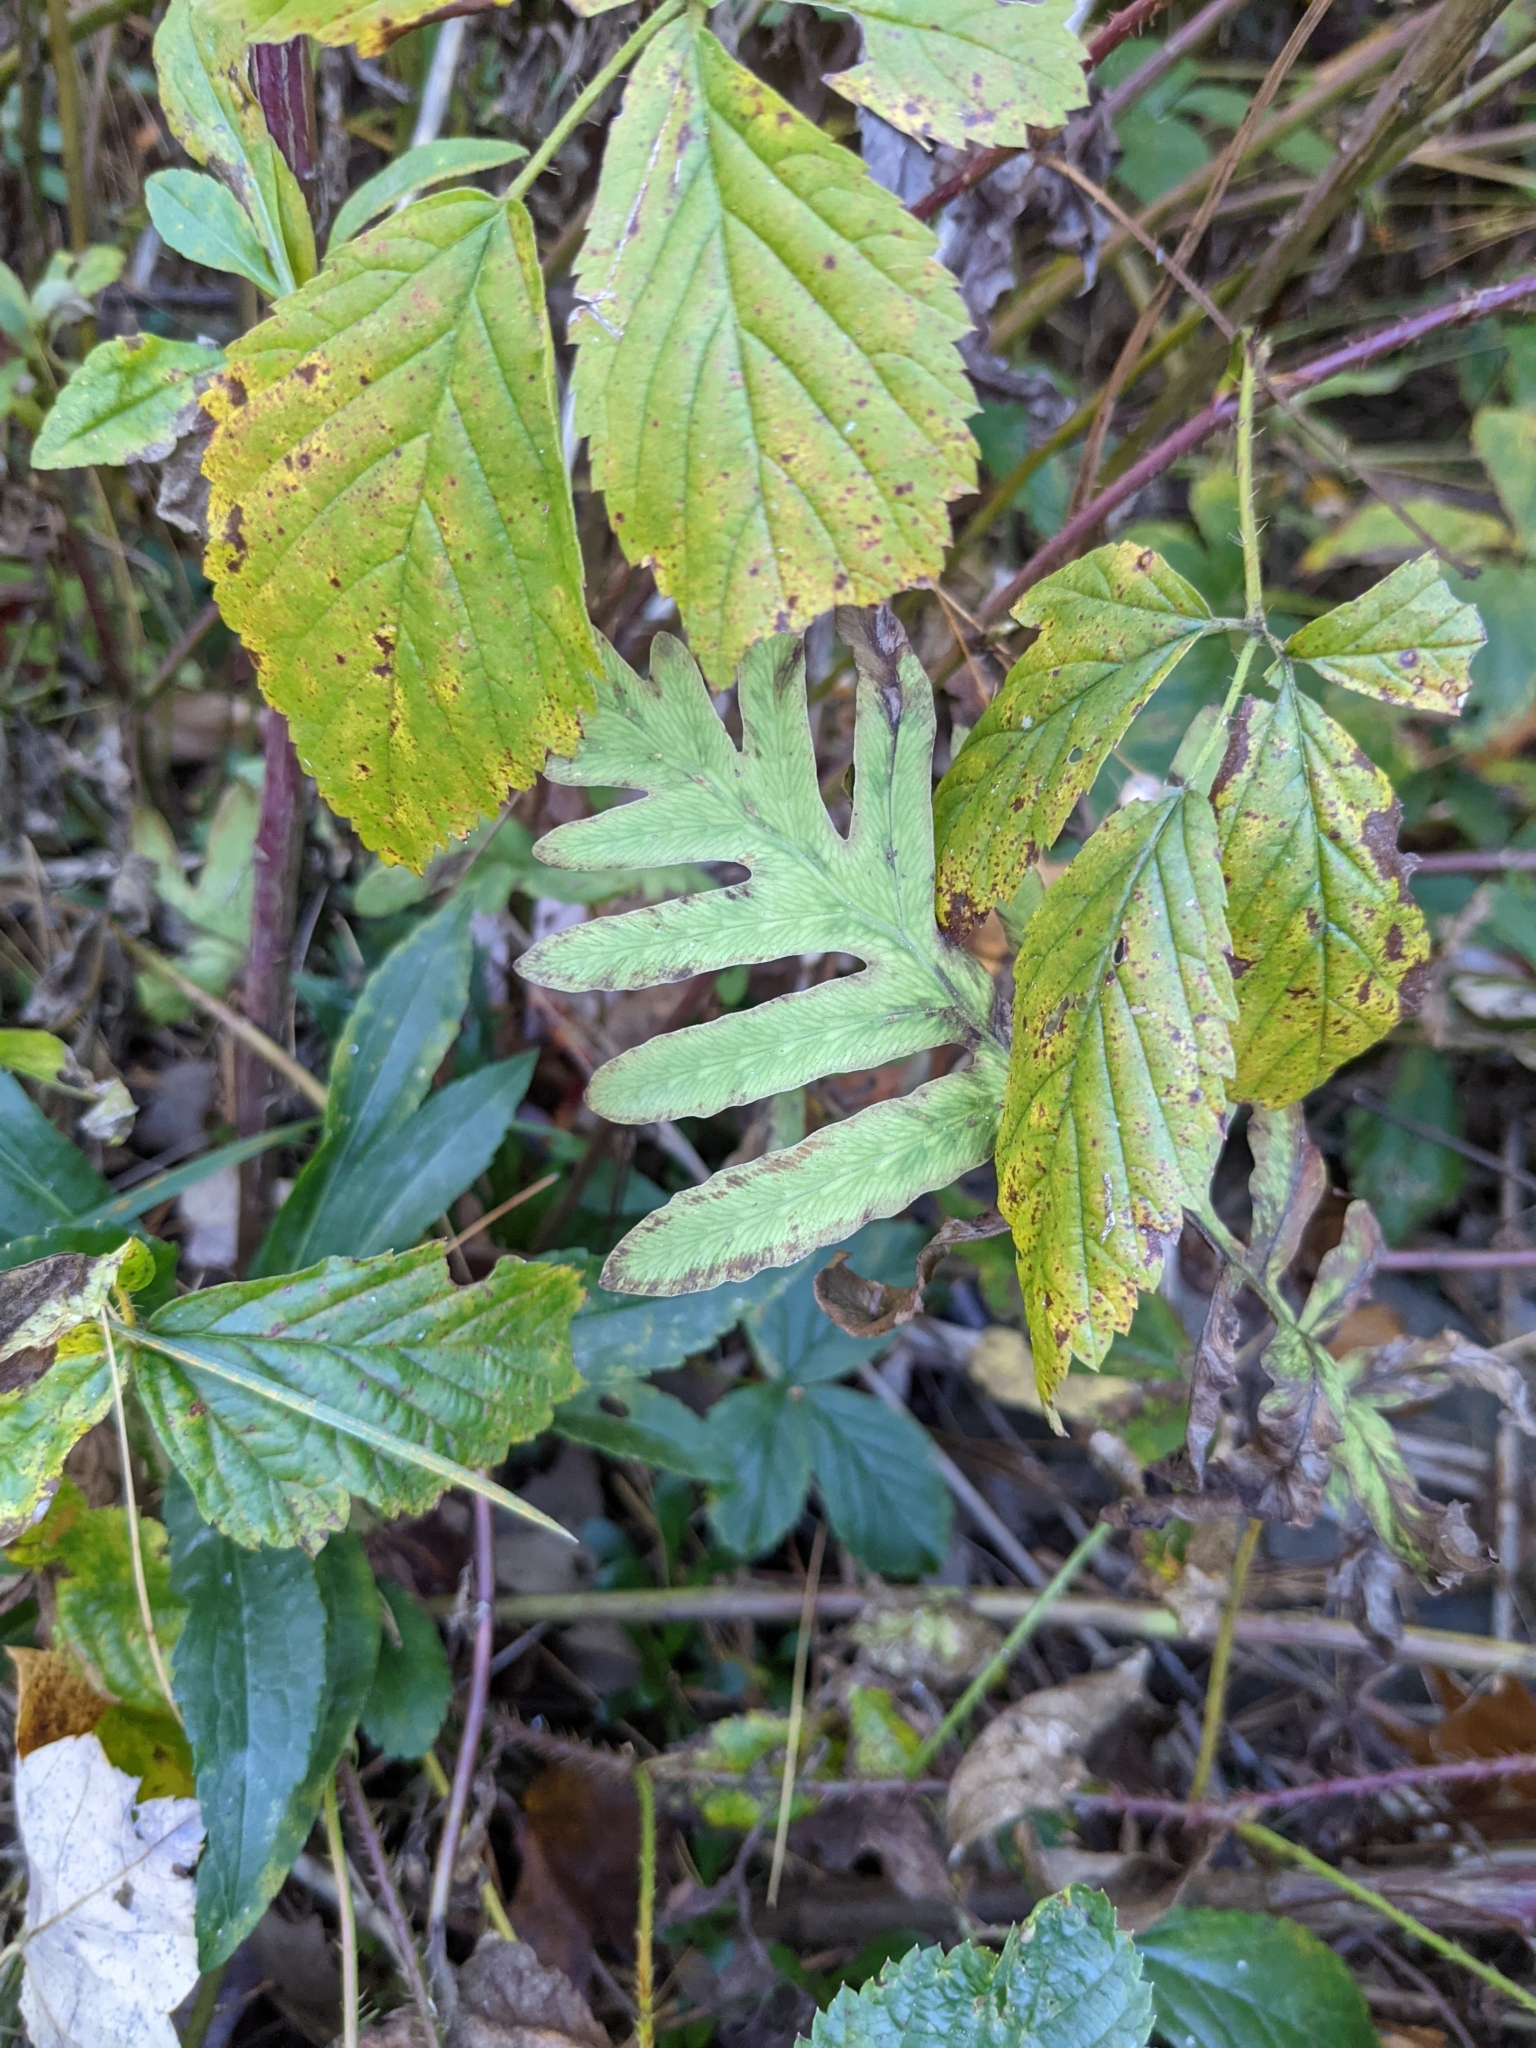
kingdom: Plantae
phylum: Tracheophyta
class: Polypodiopsida
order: Polypodiales
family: Onocleaceae
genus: Onoclea
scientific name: Onoclea sensibilis
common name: Sensitive fern
